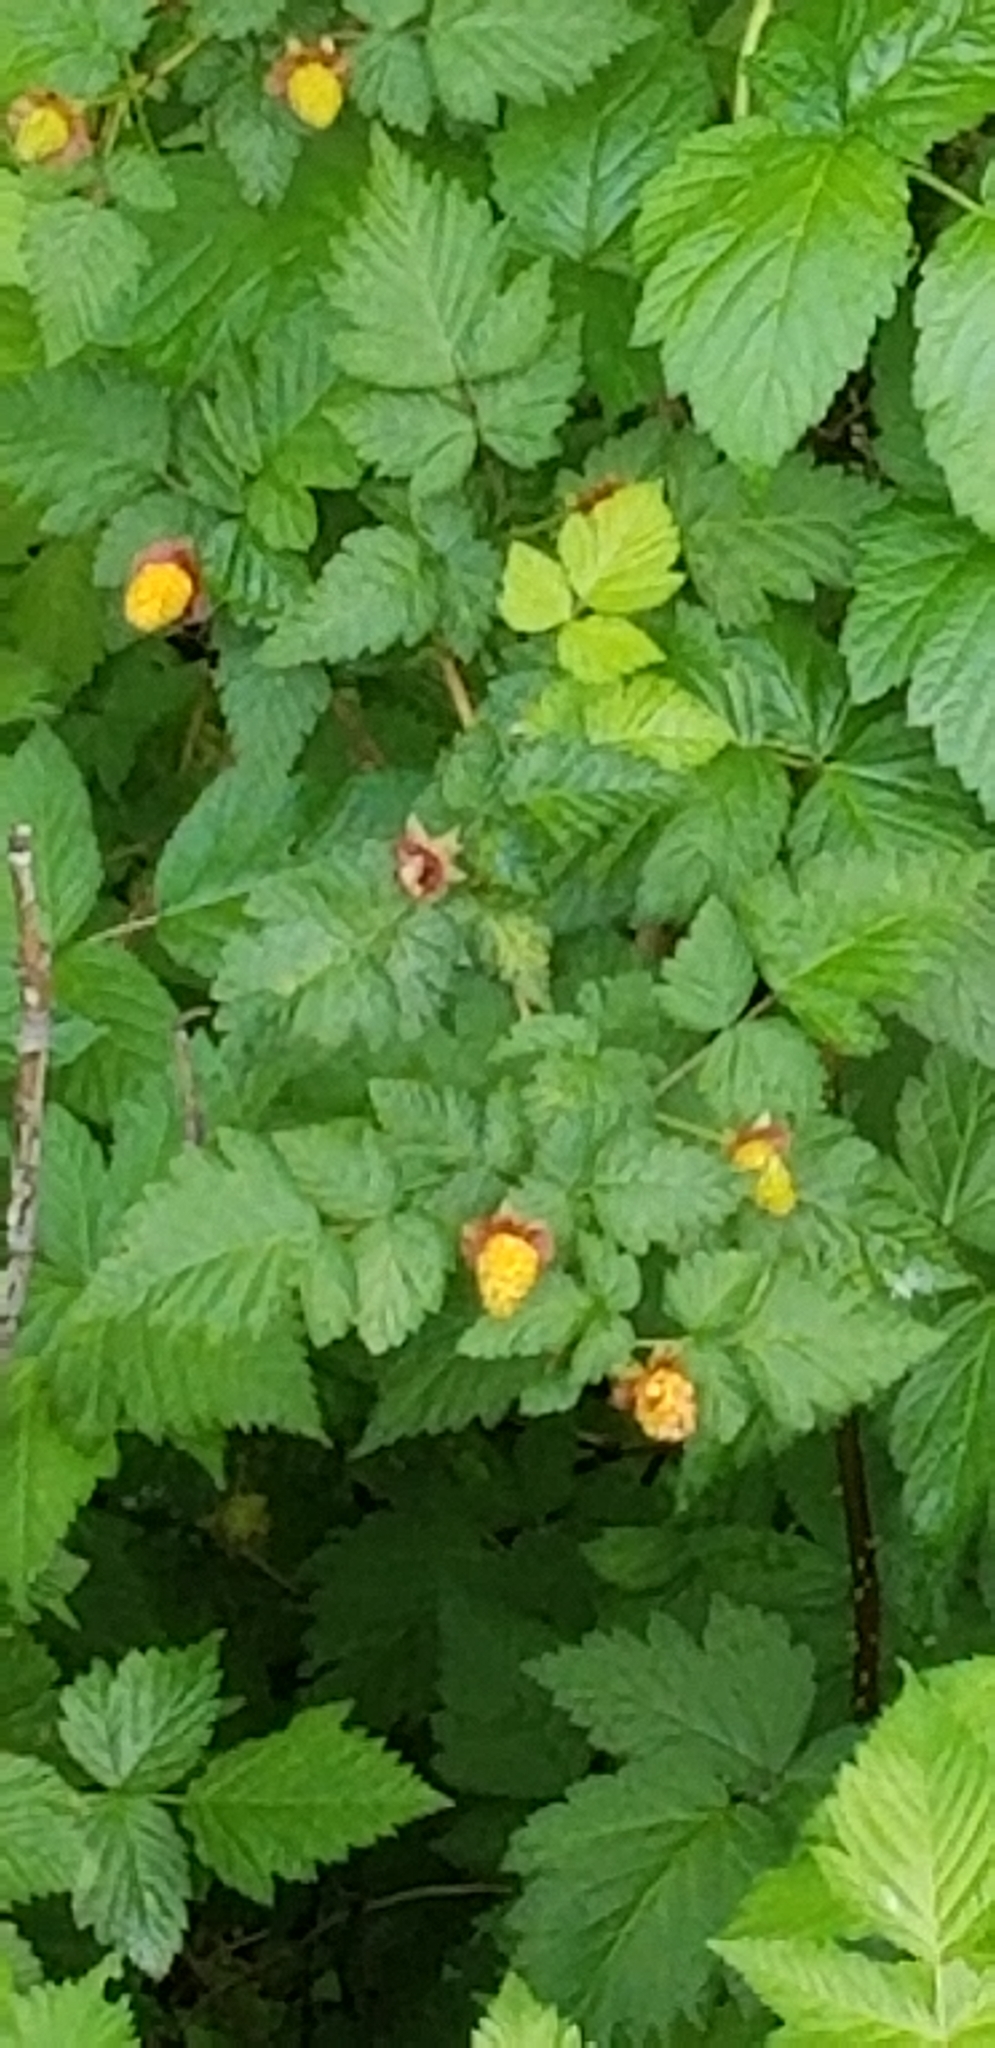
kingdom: Plantae
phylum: Tracheophyta
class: Magnoliopsida
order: Rosales
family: Rosaceae
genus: Rubus
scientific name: Rubus spectabilis
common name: Salmonberry
